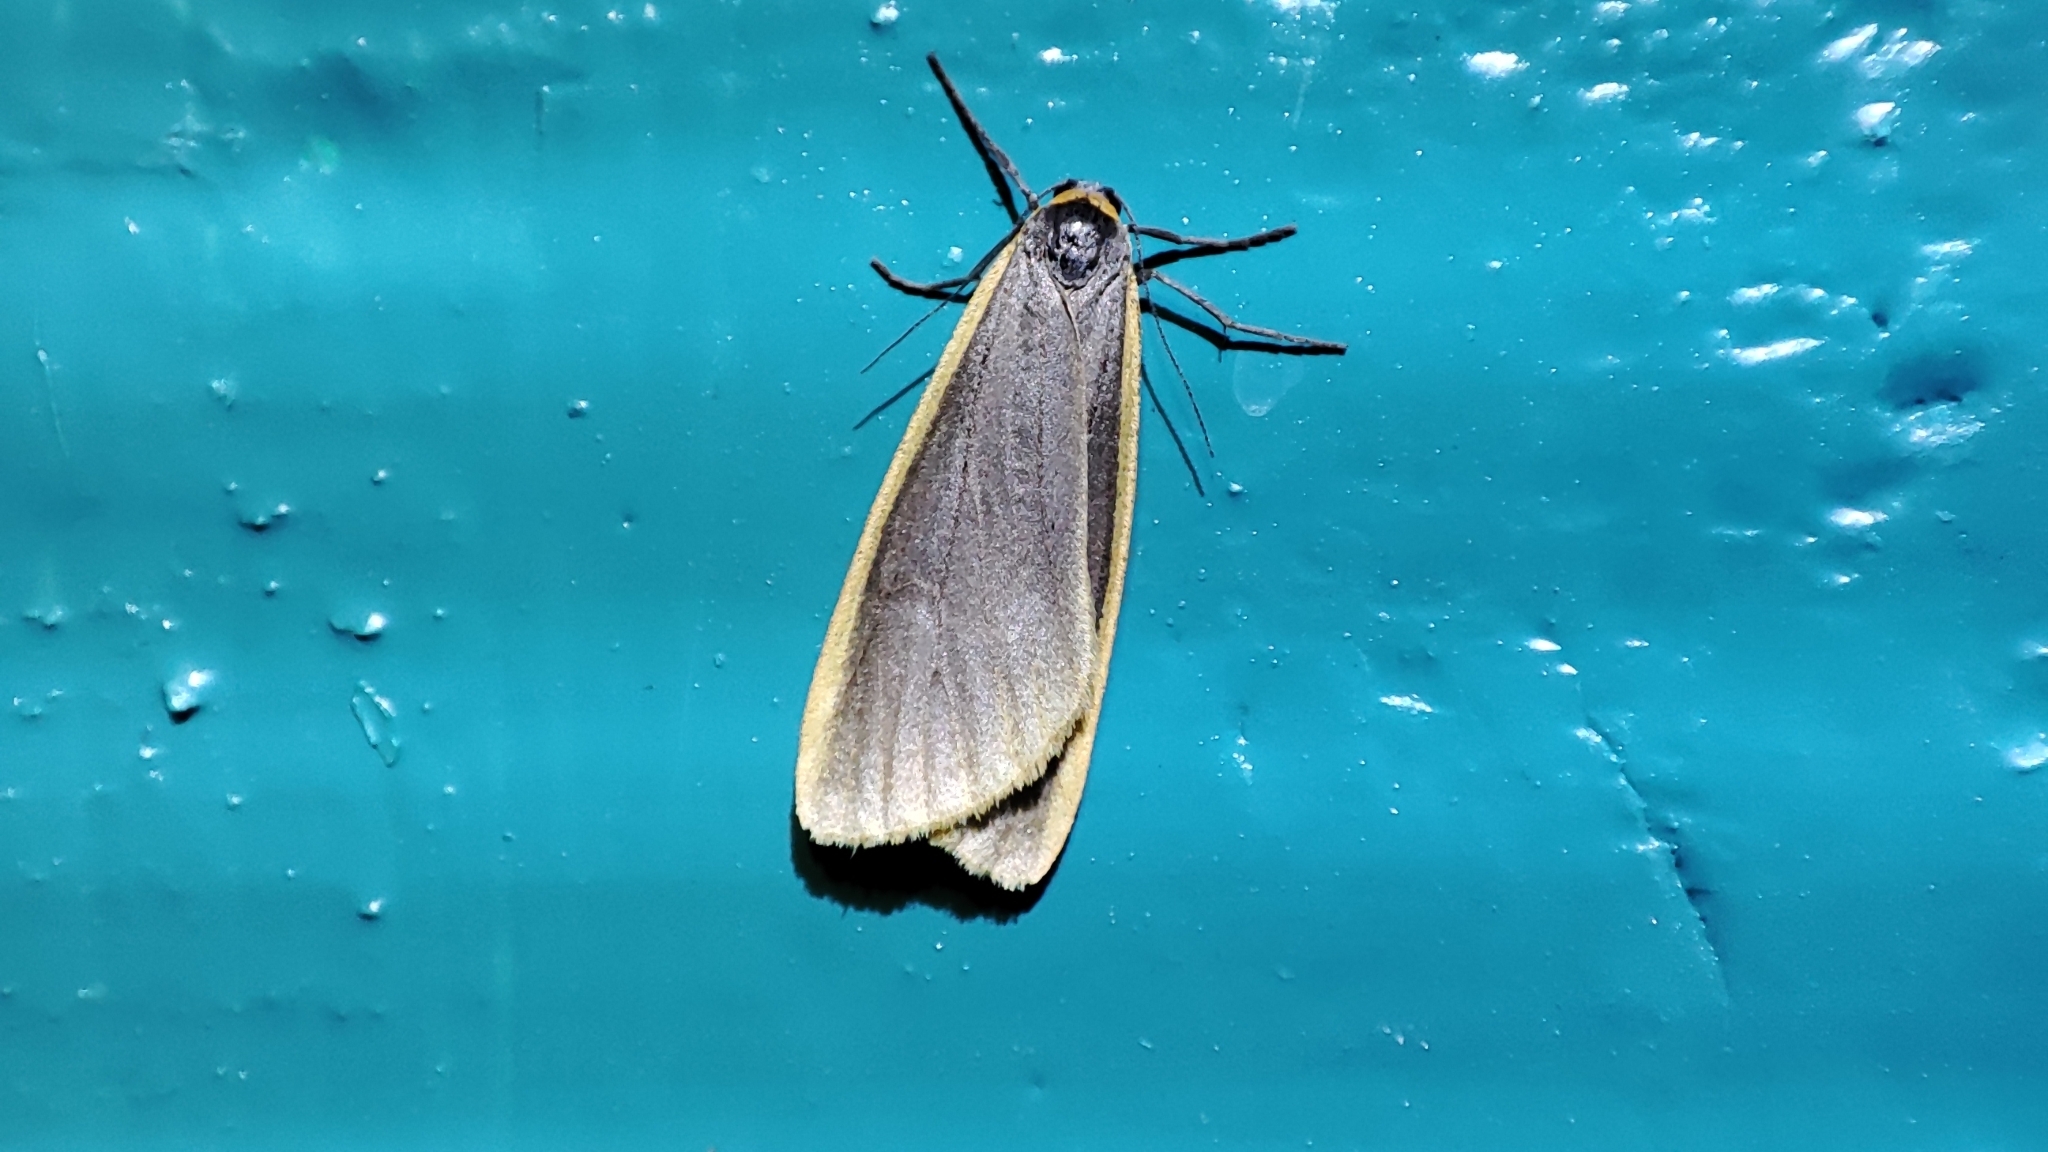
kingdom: Animalia
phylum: Arthropoda
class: Insecta
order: Lepidoptera
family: Erebidae
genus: Manulea
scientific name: Manulea debilis
